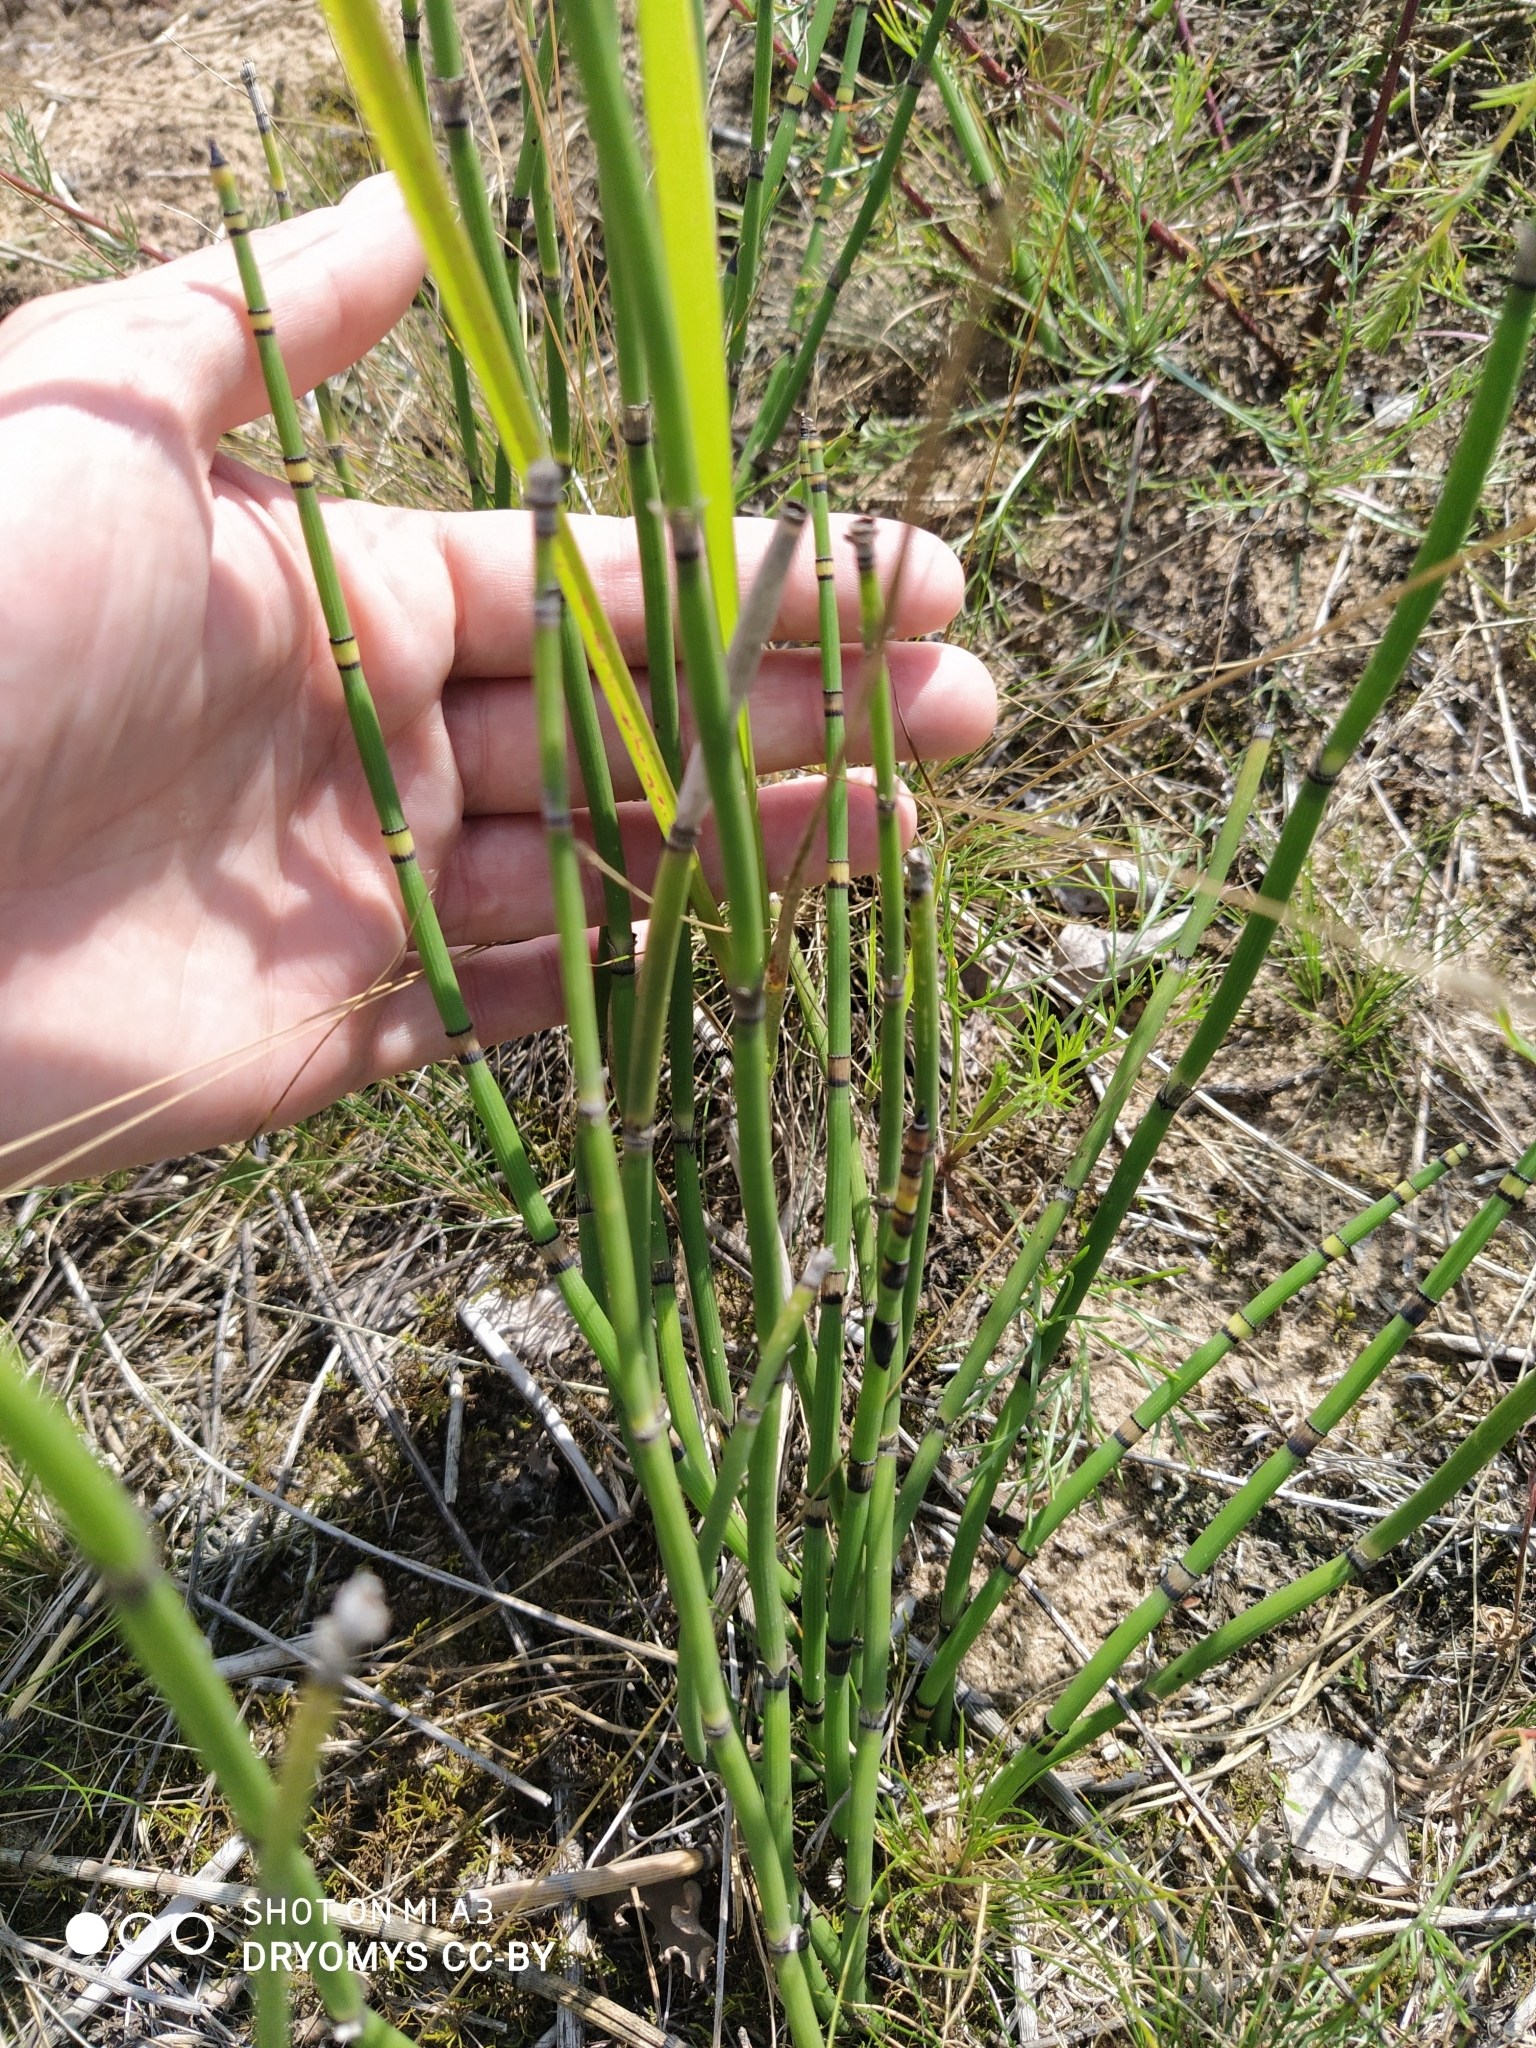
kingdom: Plantae
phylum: Tracheophyta
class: Polypodiopsida
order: Equisetales
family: Equisetaceae
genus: Equisetum
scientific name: Equisetum hyemale
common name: Rough horsetail
